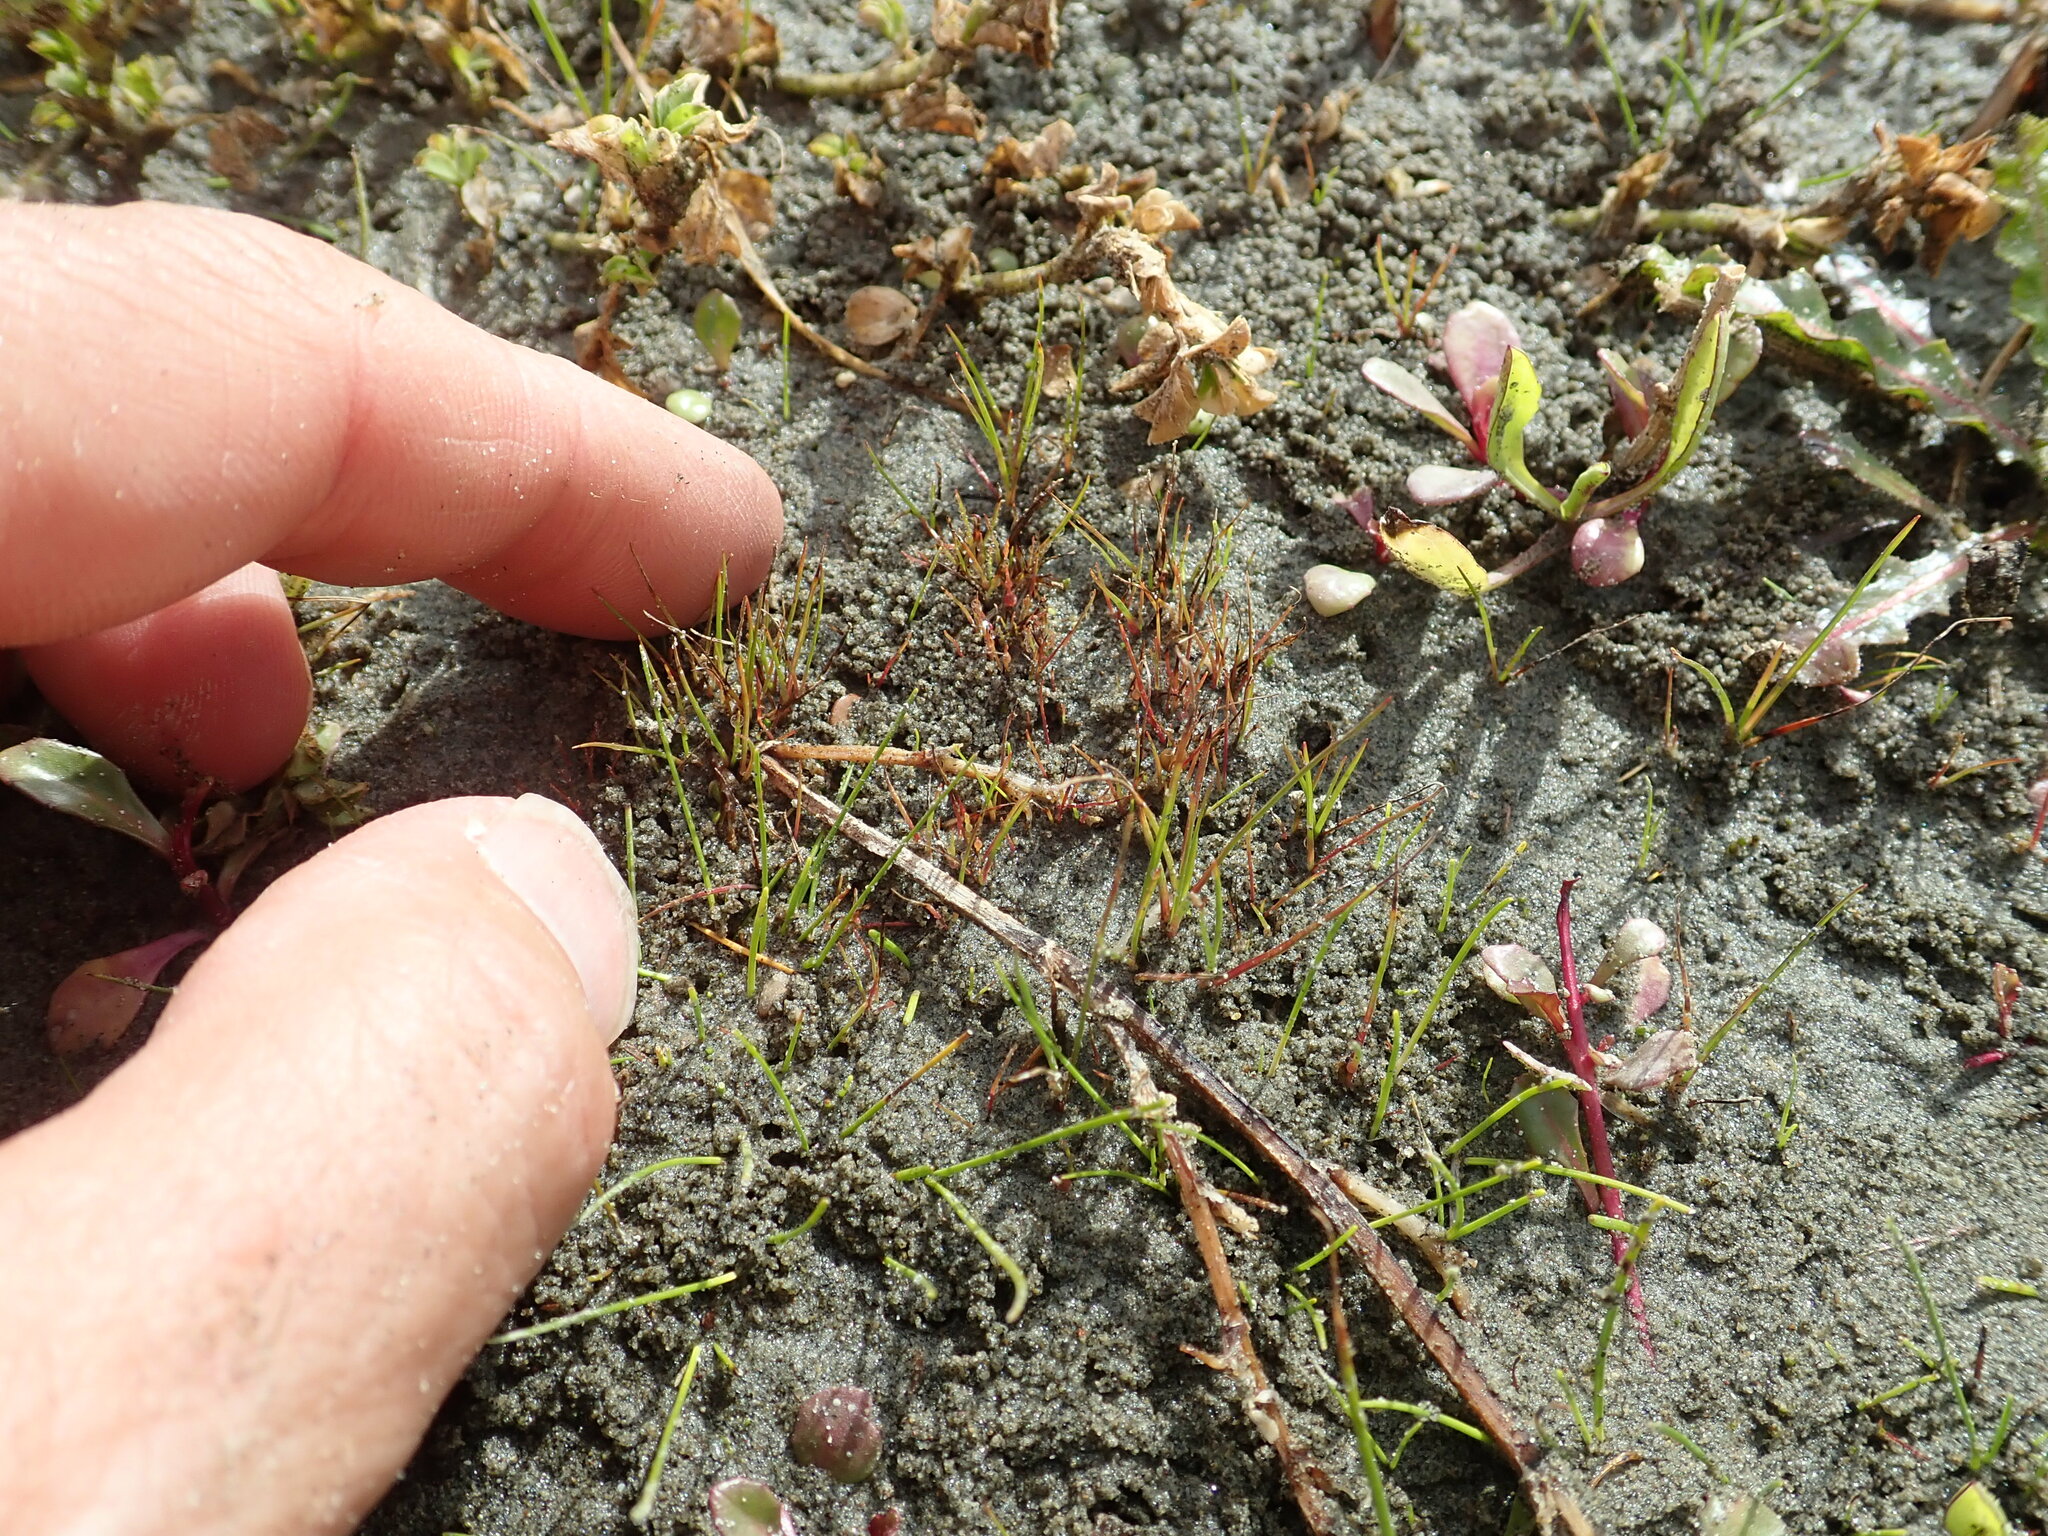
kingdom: Plantae
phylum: Tracheophyta
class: Liliopsida
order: Poales
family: Juncaceae
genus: Juncus
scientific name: Juncus caespiticius
